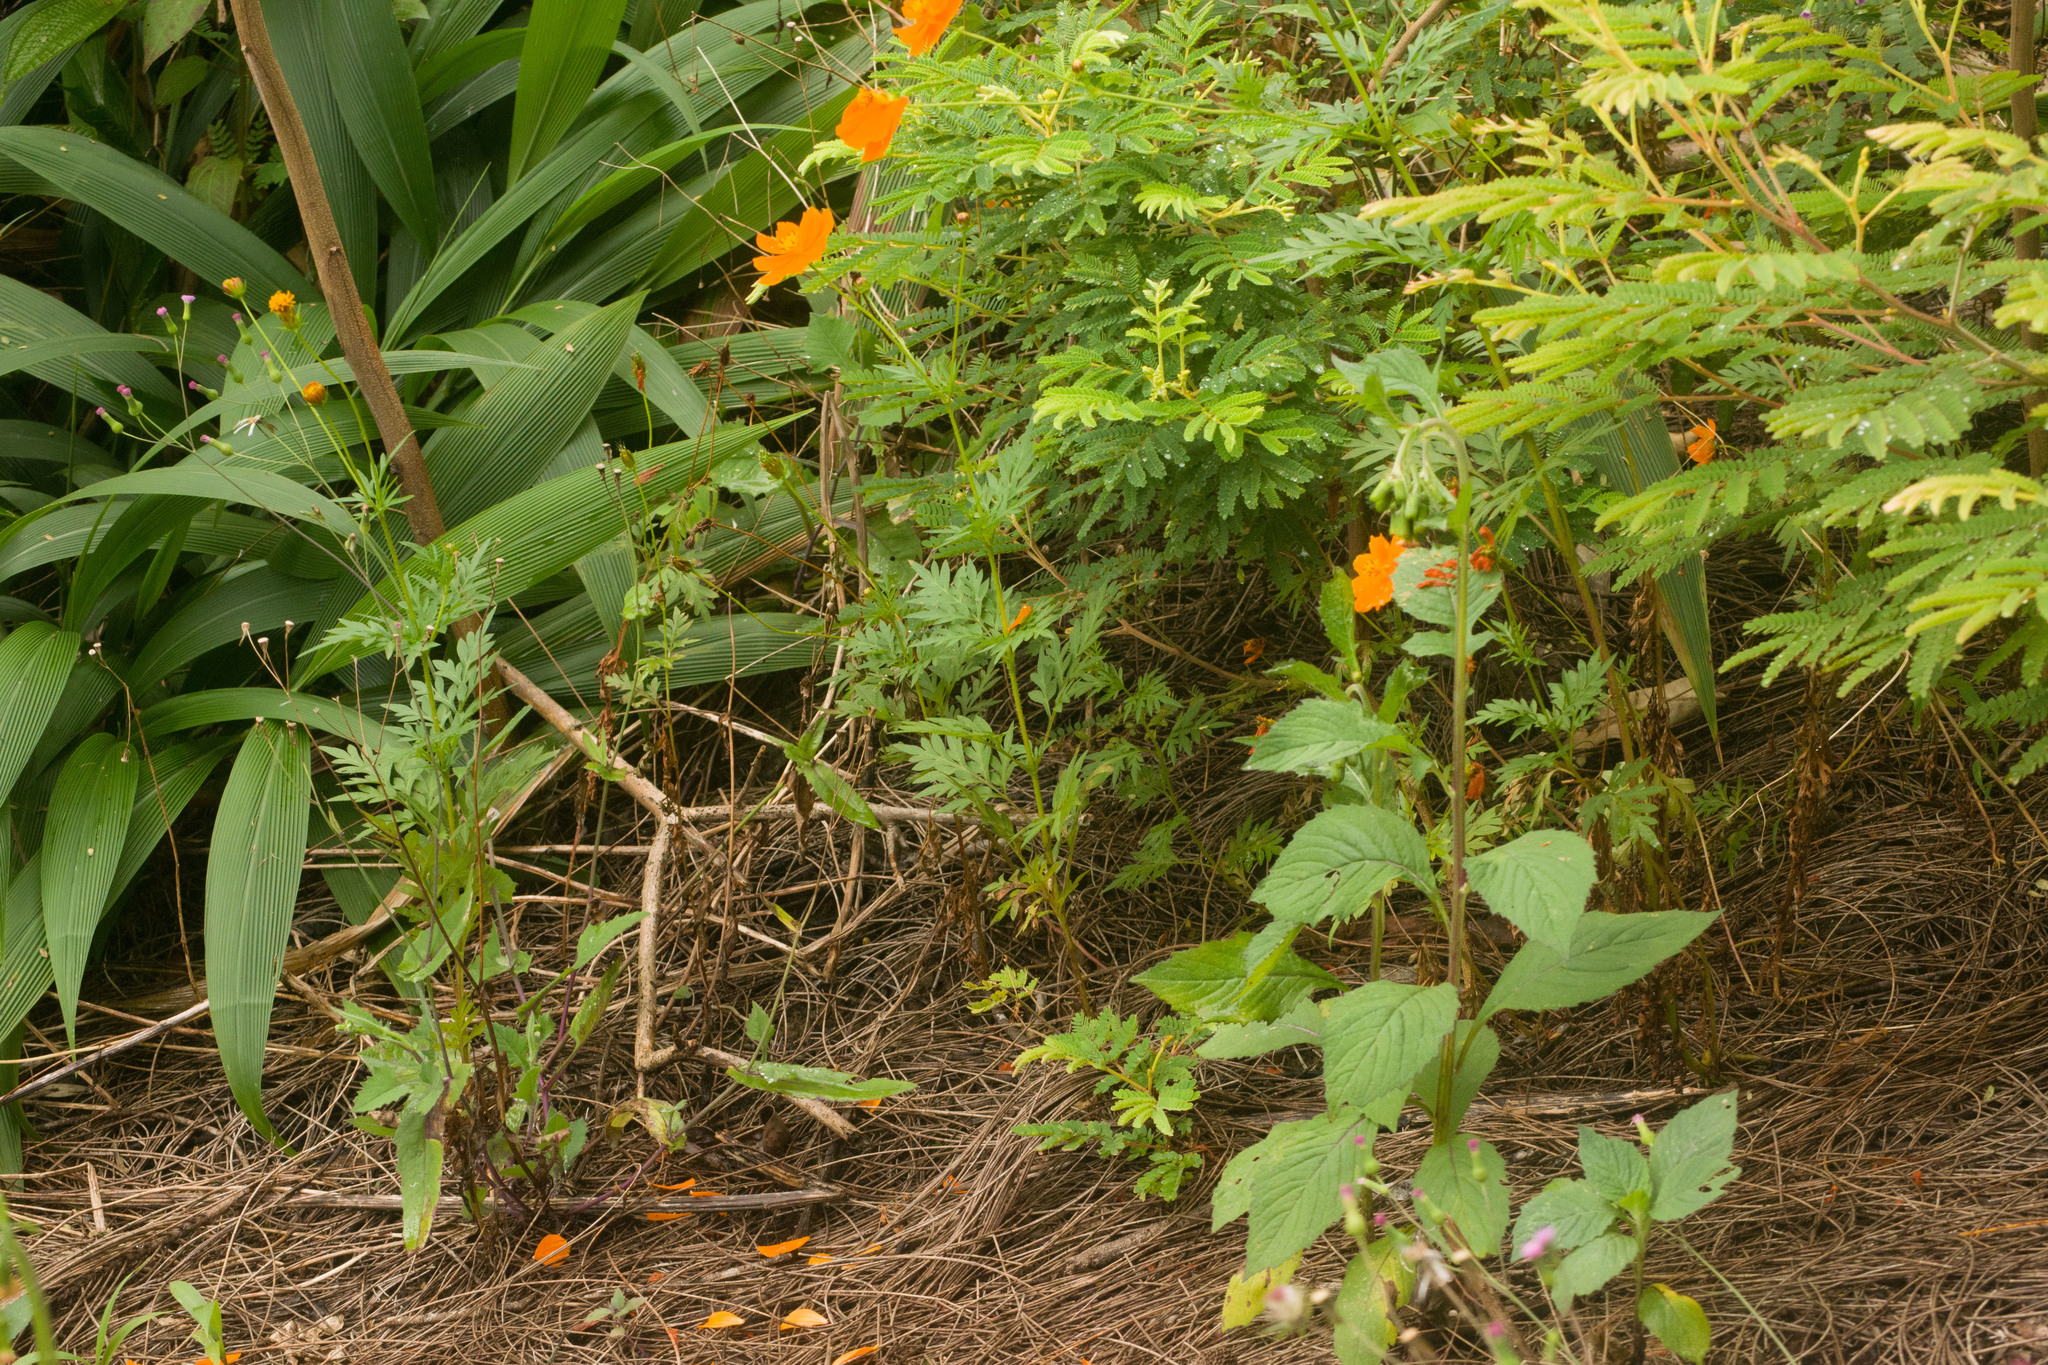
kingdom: Plantae
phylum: Tracheophyta
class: Magnoliopsida
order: Asterales
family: Asteraceae
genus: Cosmos
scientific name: Cosmos sulphureus
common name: Sulphur cosmos
